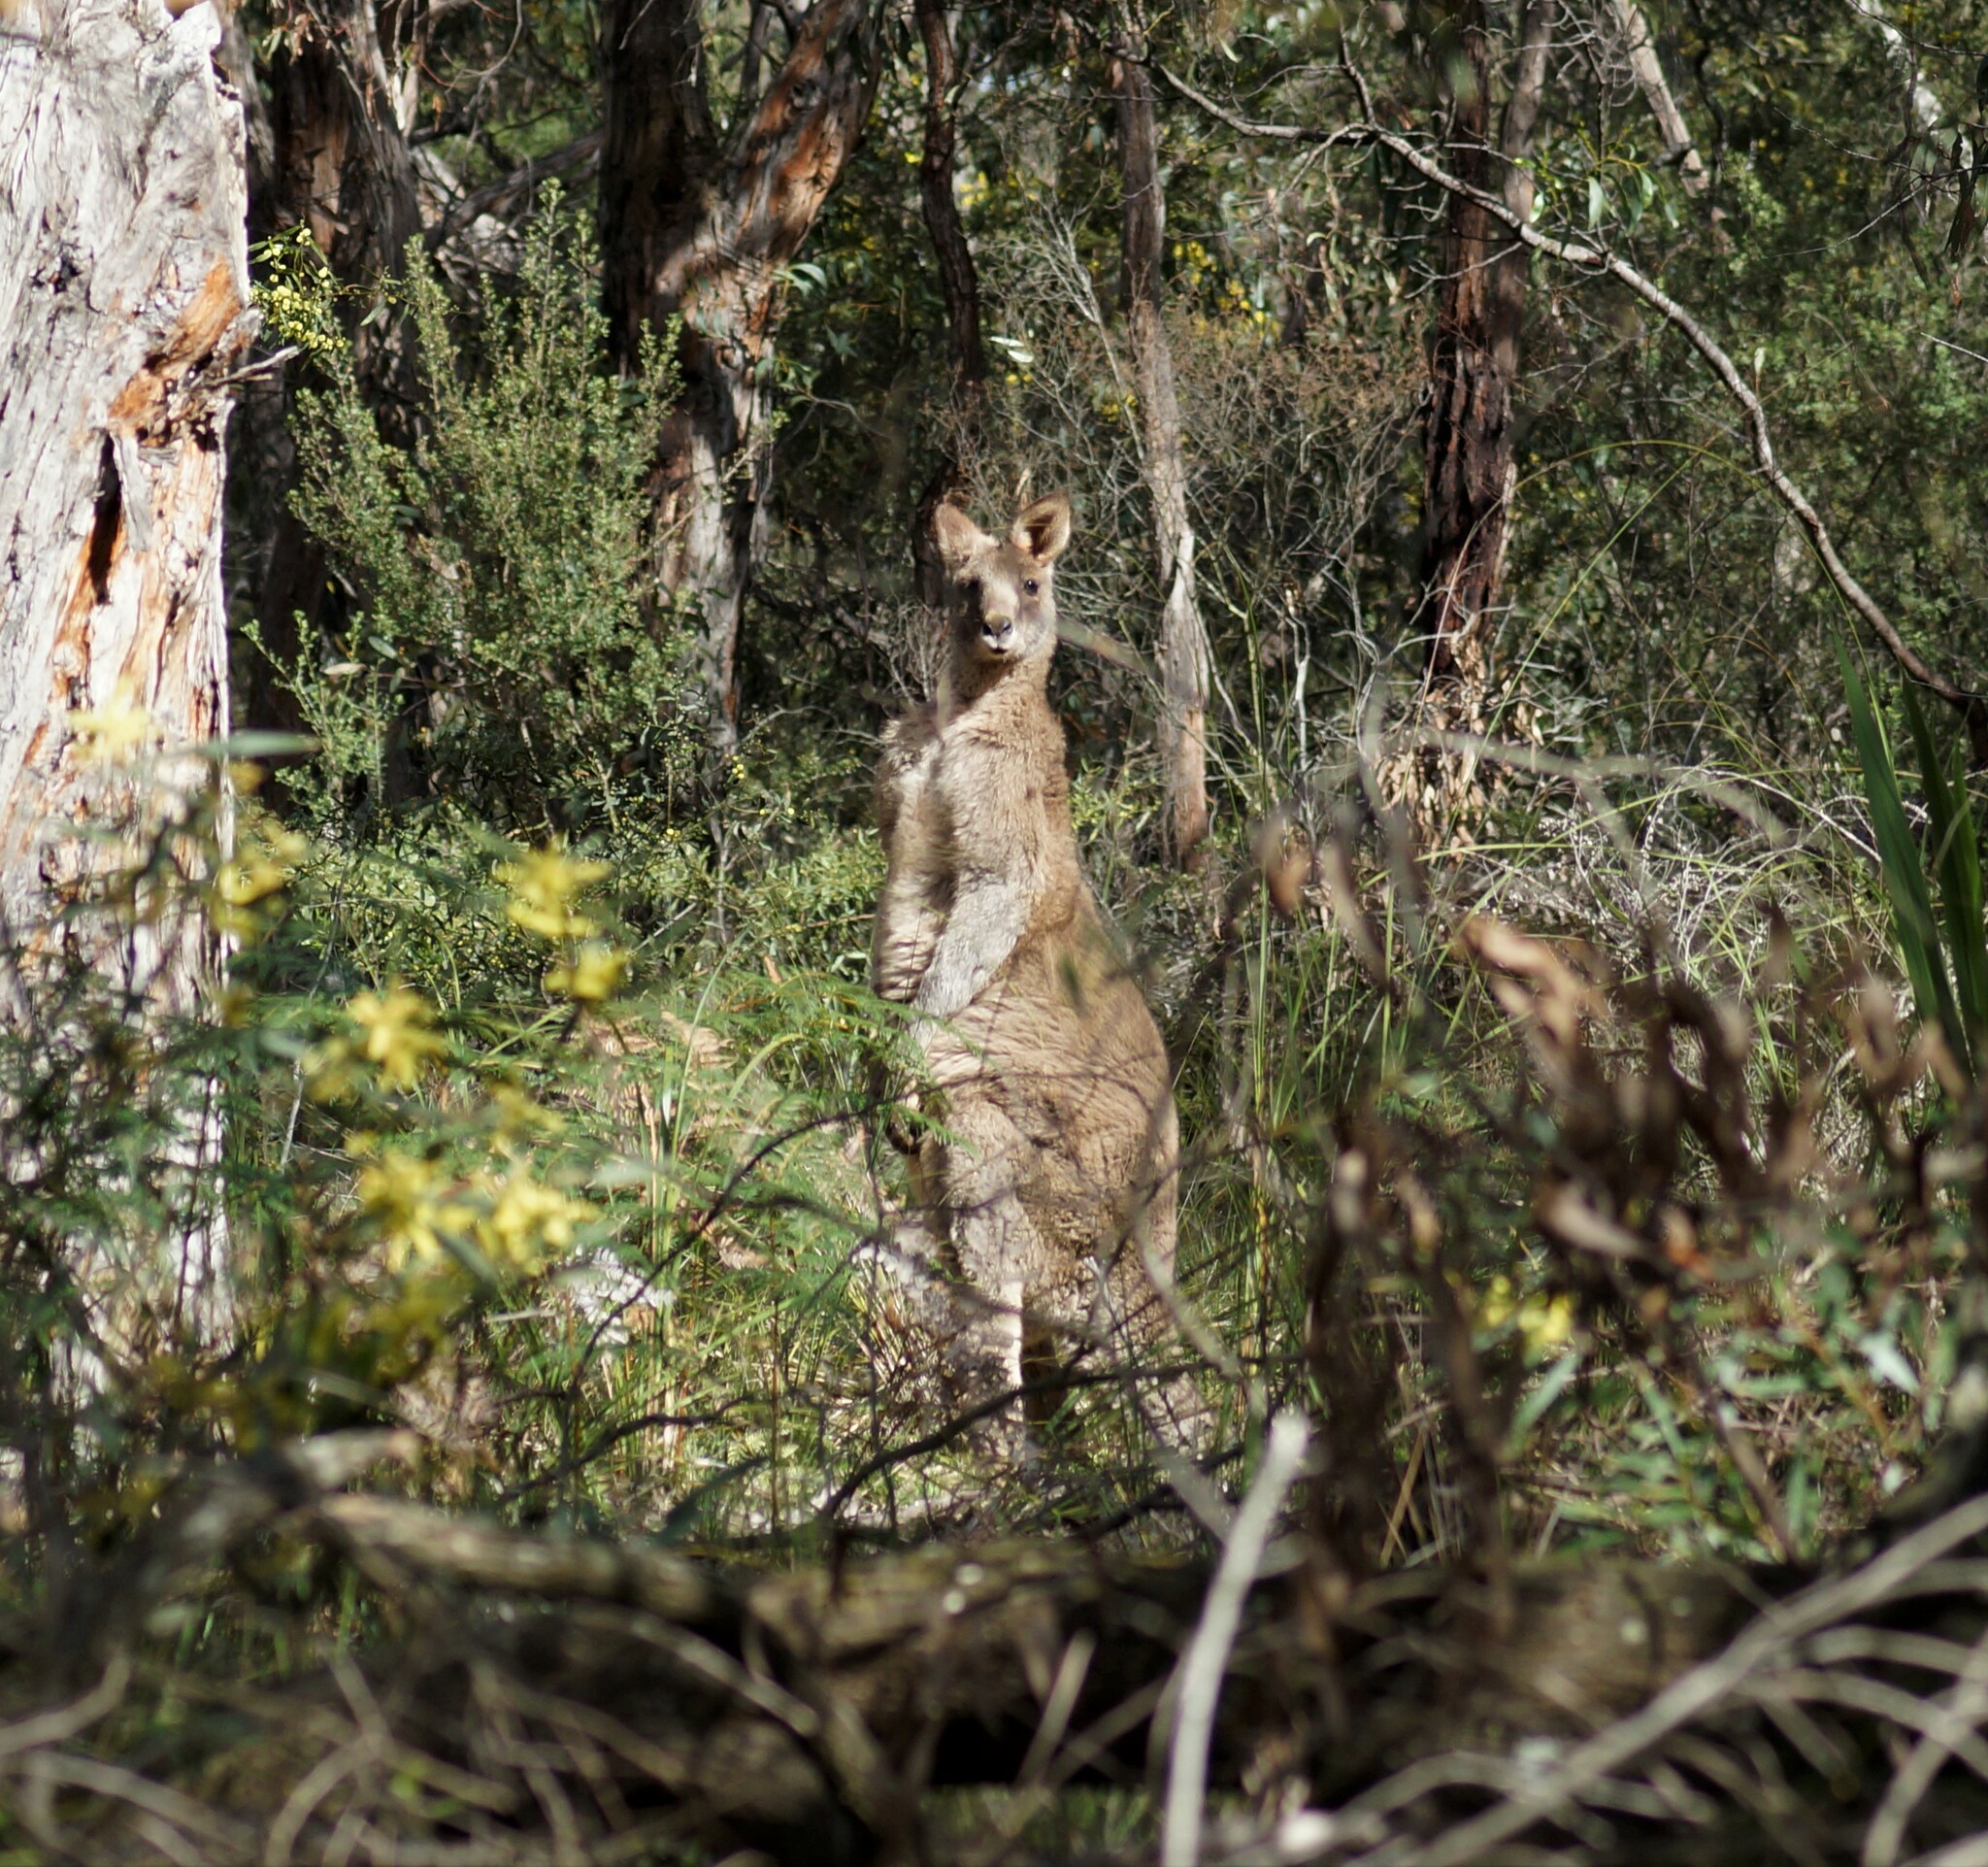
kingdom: Animalia
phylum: Chordata
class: Mammalia
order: Diprotodontia
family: Macropodidae
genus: Macropus
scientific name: Macropus giganteus
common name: Eastern grey kangaroo
